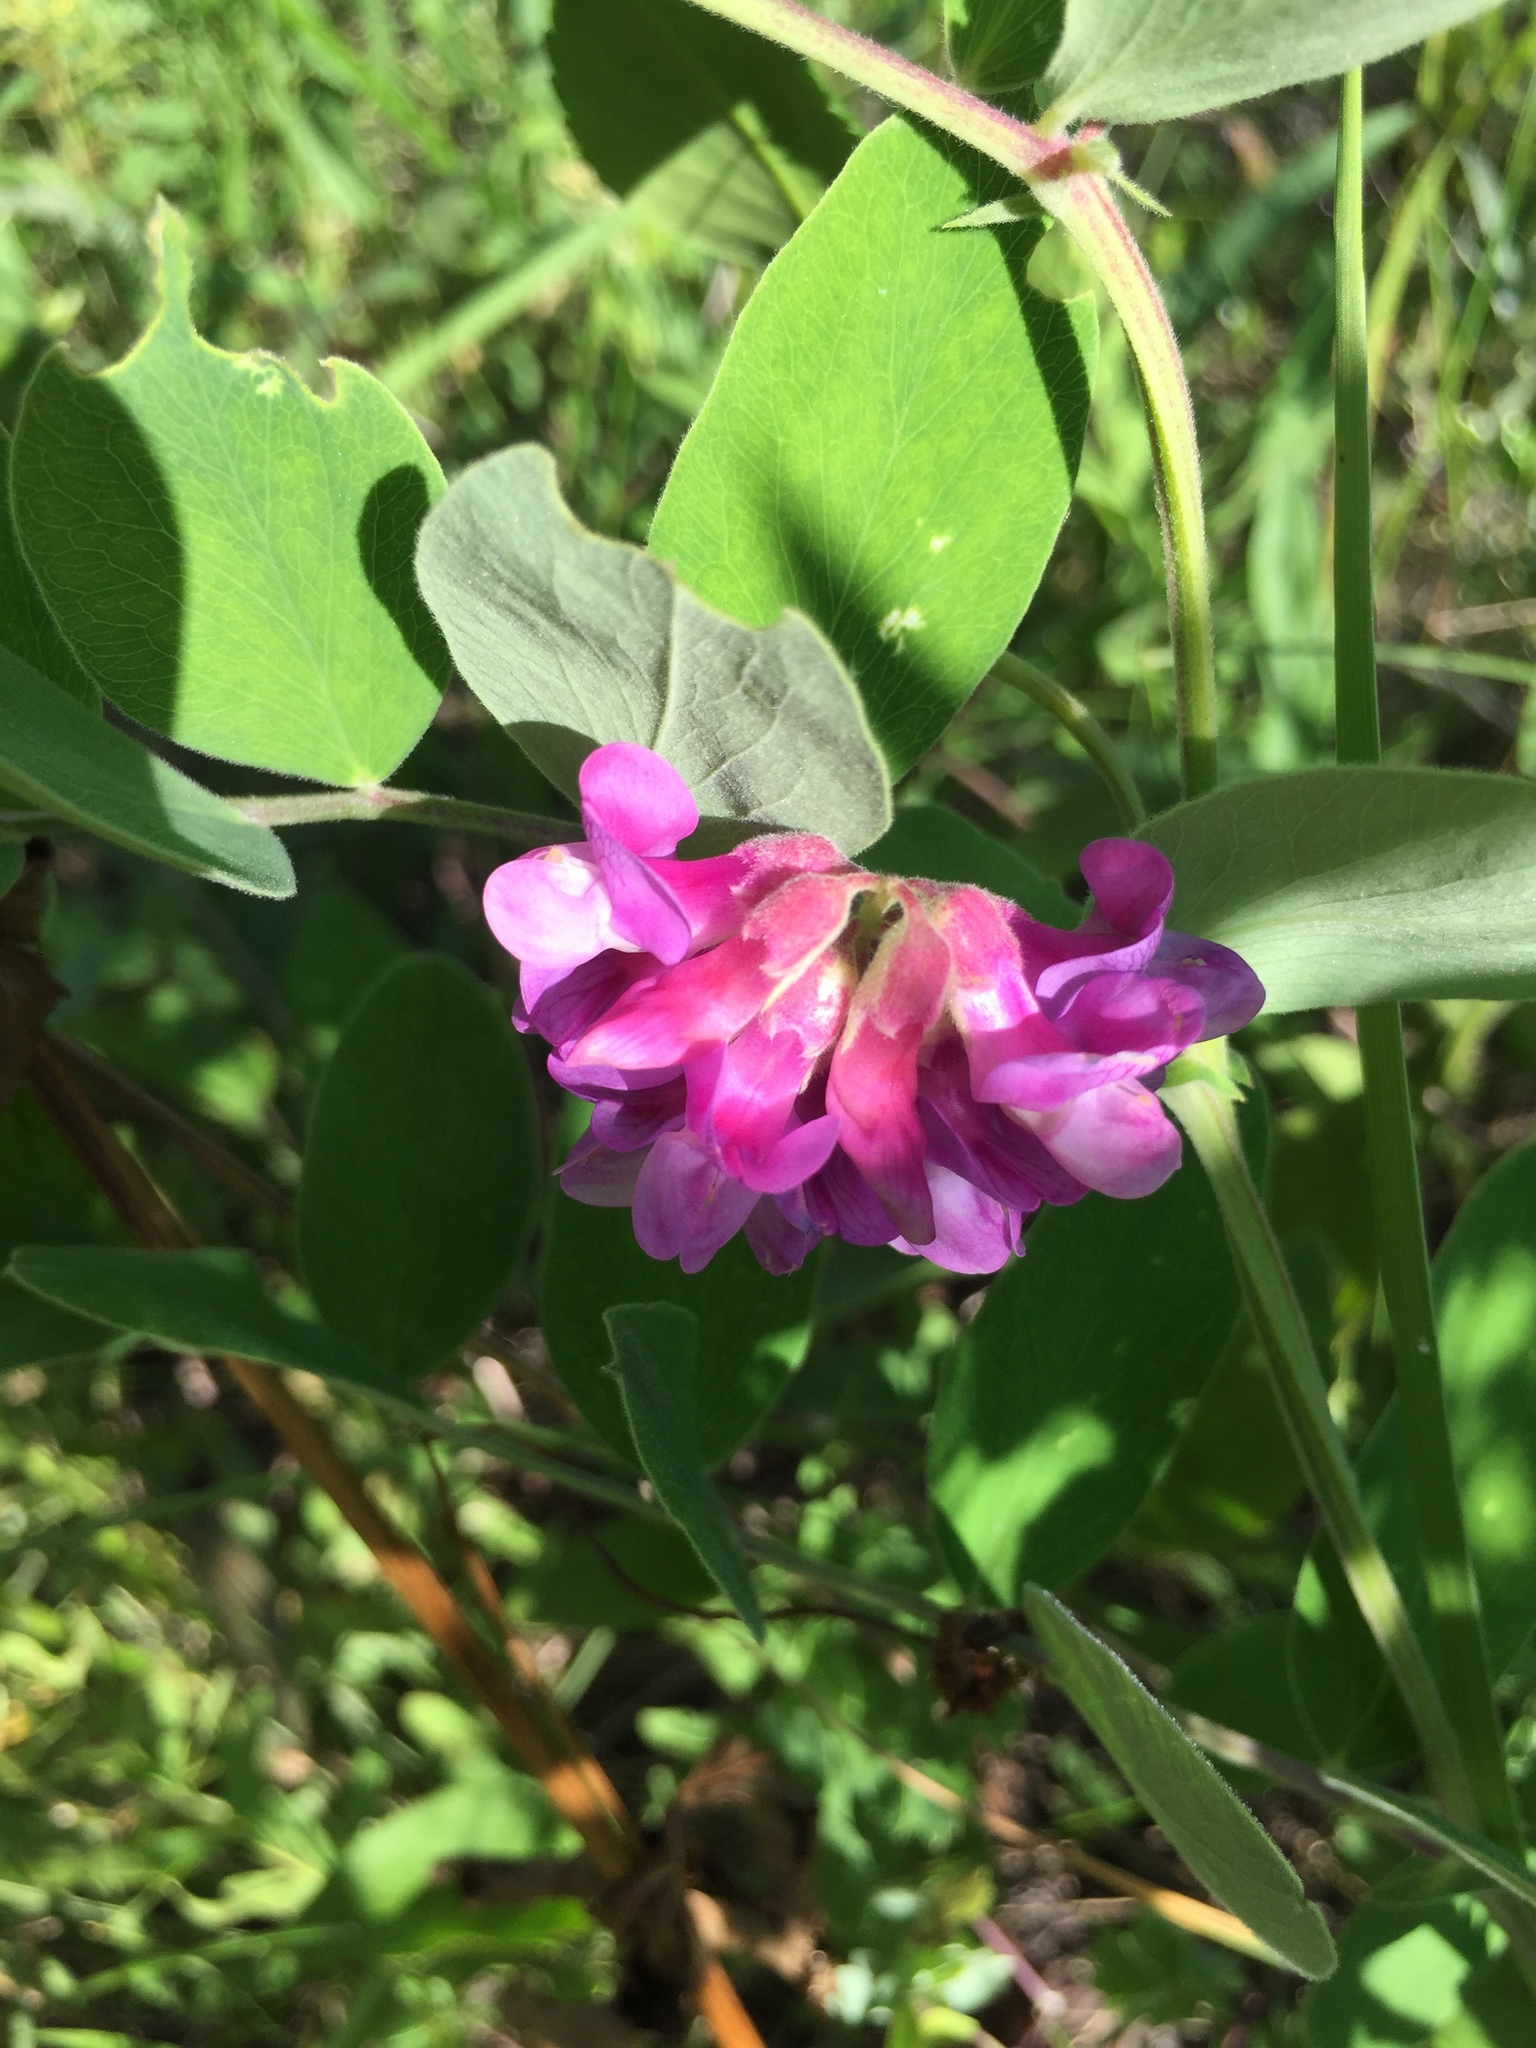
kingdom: Plantae
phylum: Tracheophyta
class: Magnoliopsida
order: Fabales
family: Fabaceae
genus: Lathyrus
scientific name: Lathyrus venosus
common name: Forest-pea
